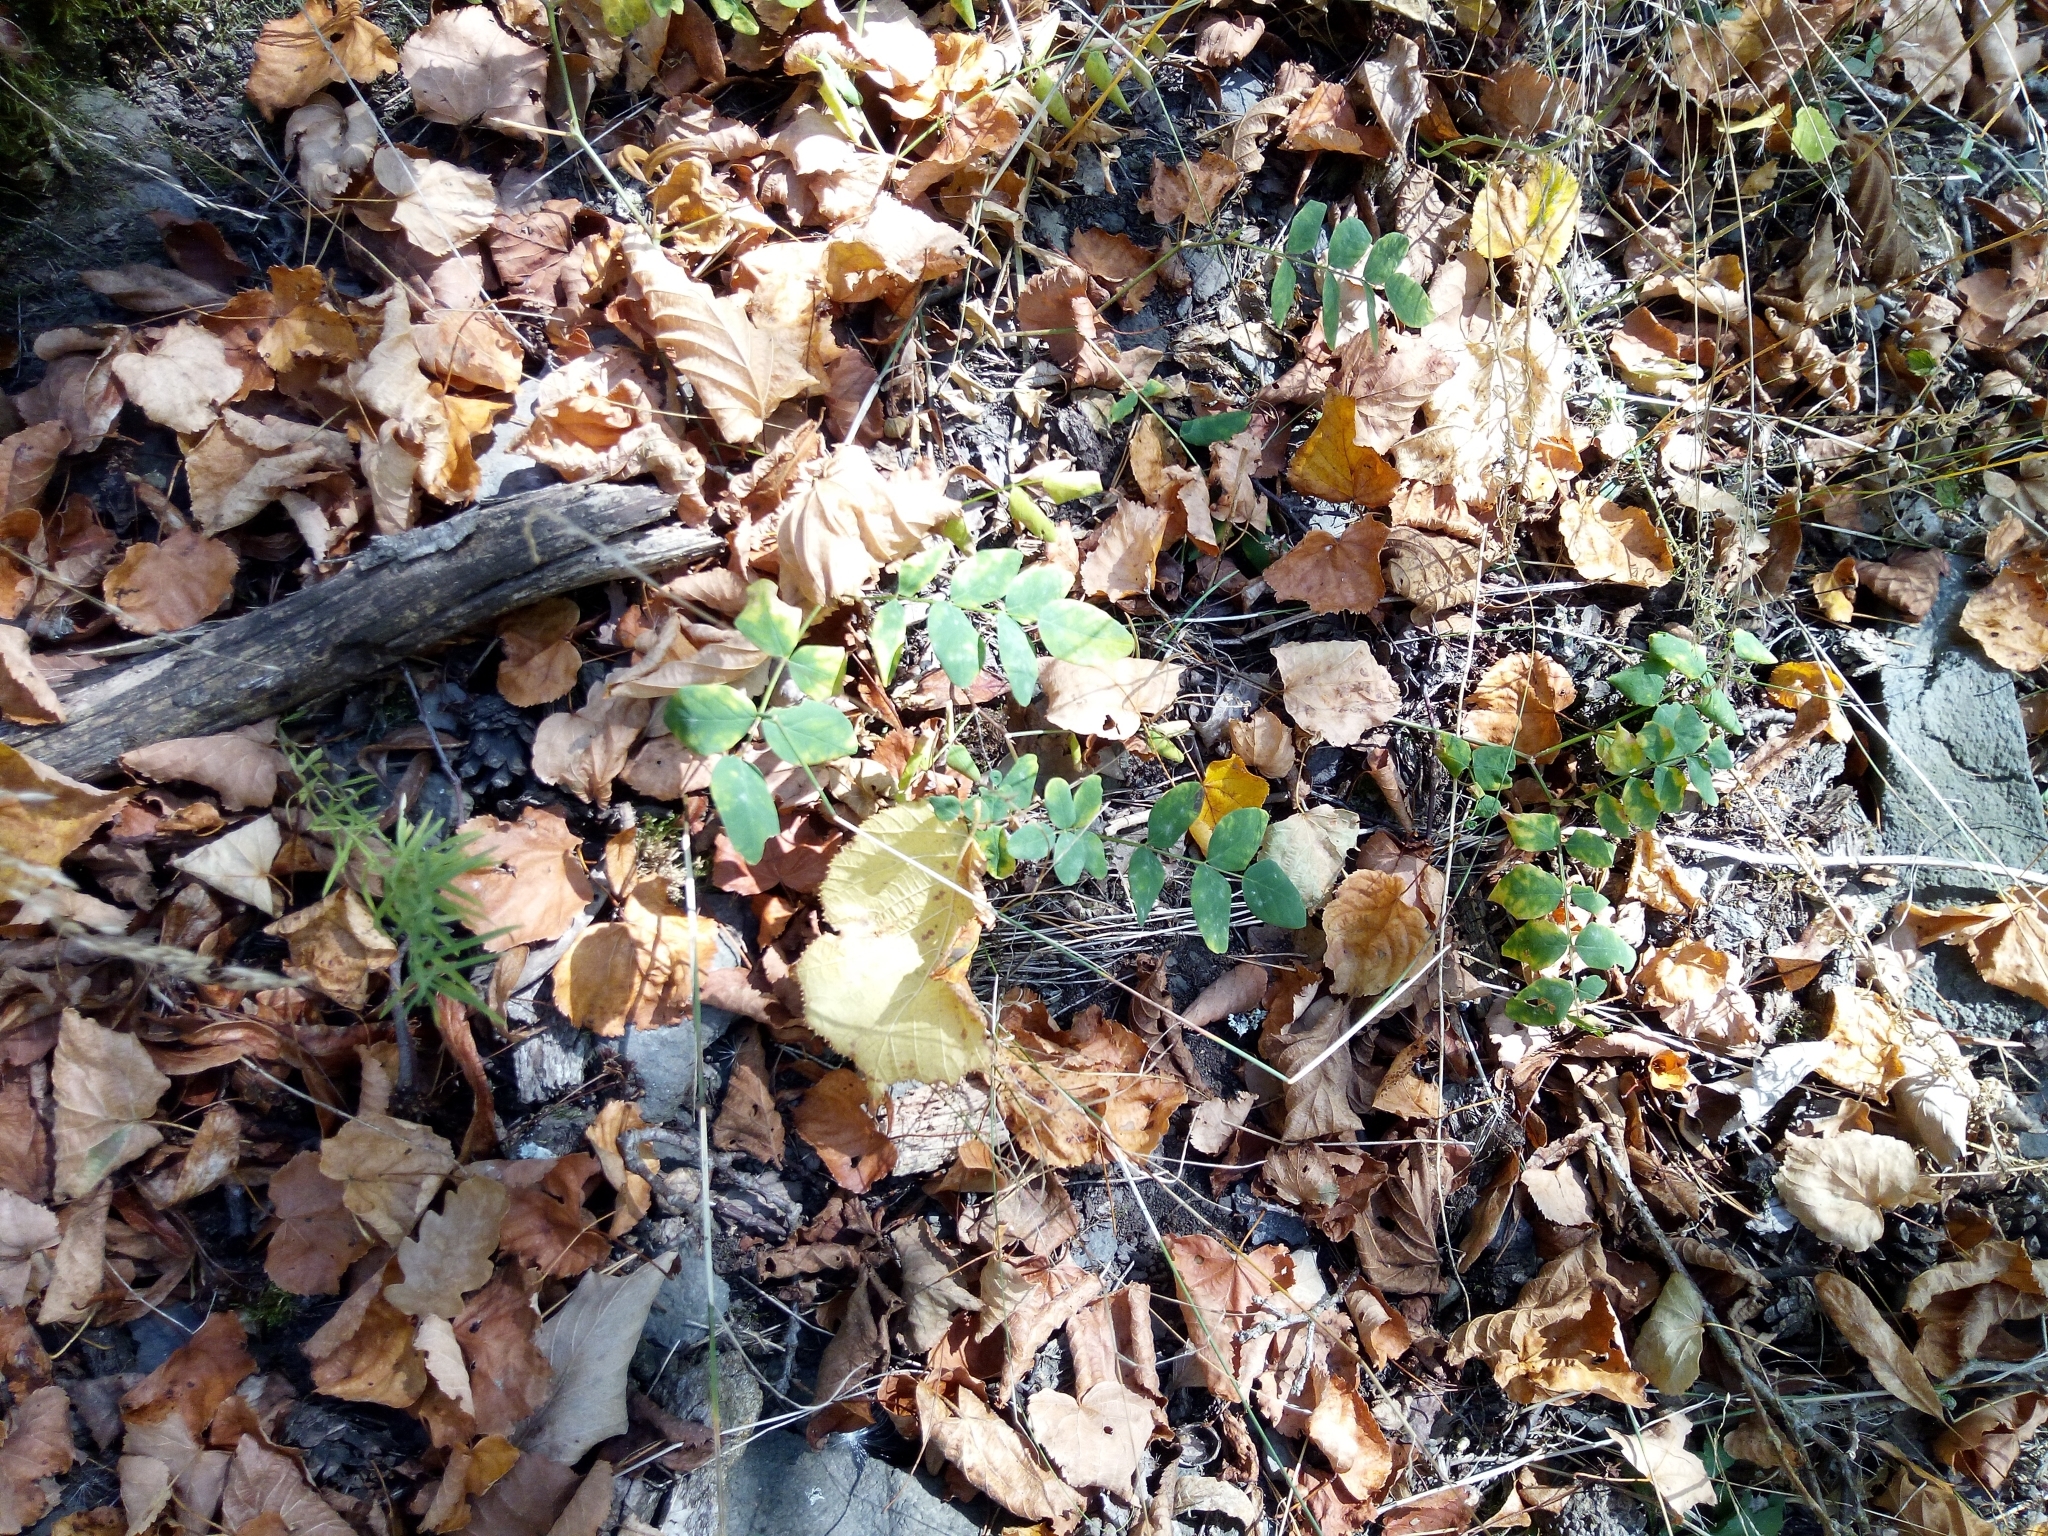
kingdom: Plantae
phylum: Tracheophyta
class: Magnoliopsida
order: Fabales
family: Fabaceae
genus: Astragalus
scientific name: Astragalus glycyphyllos
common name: Wild liquorice
